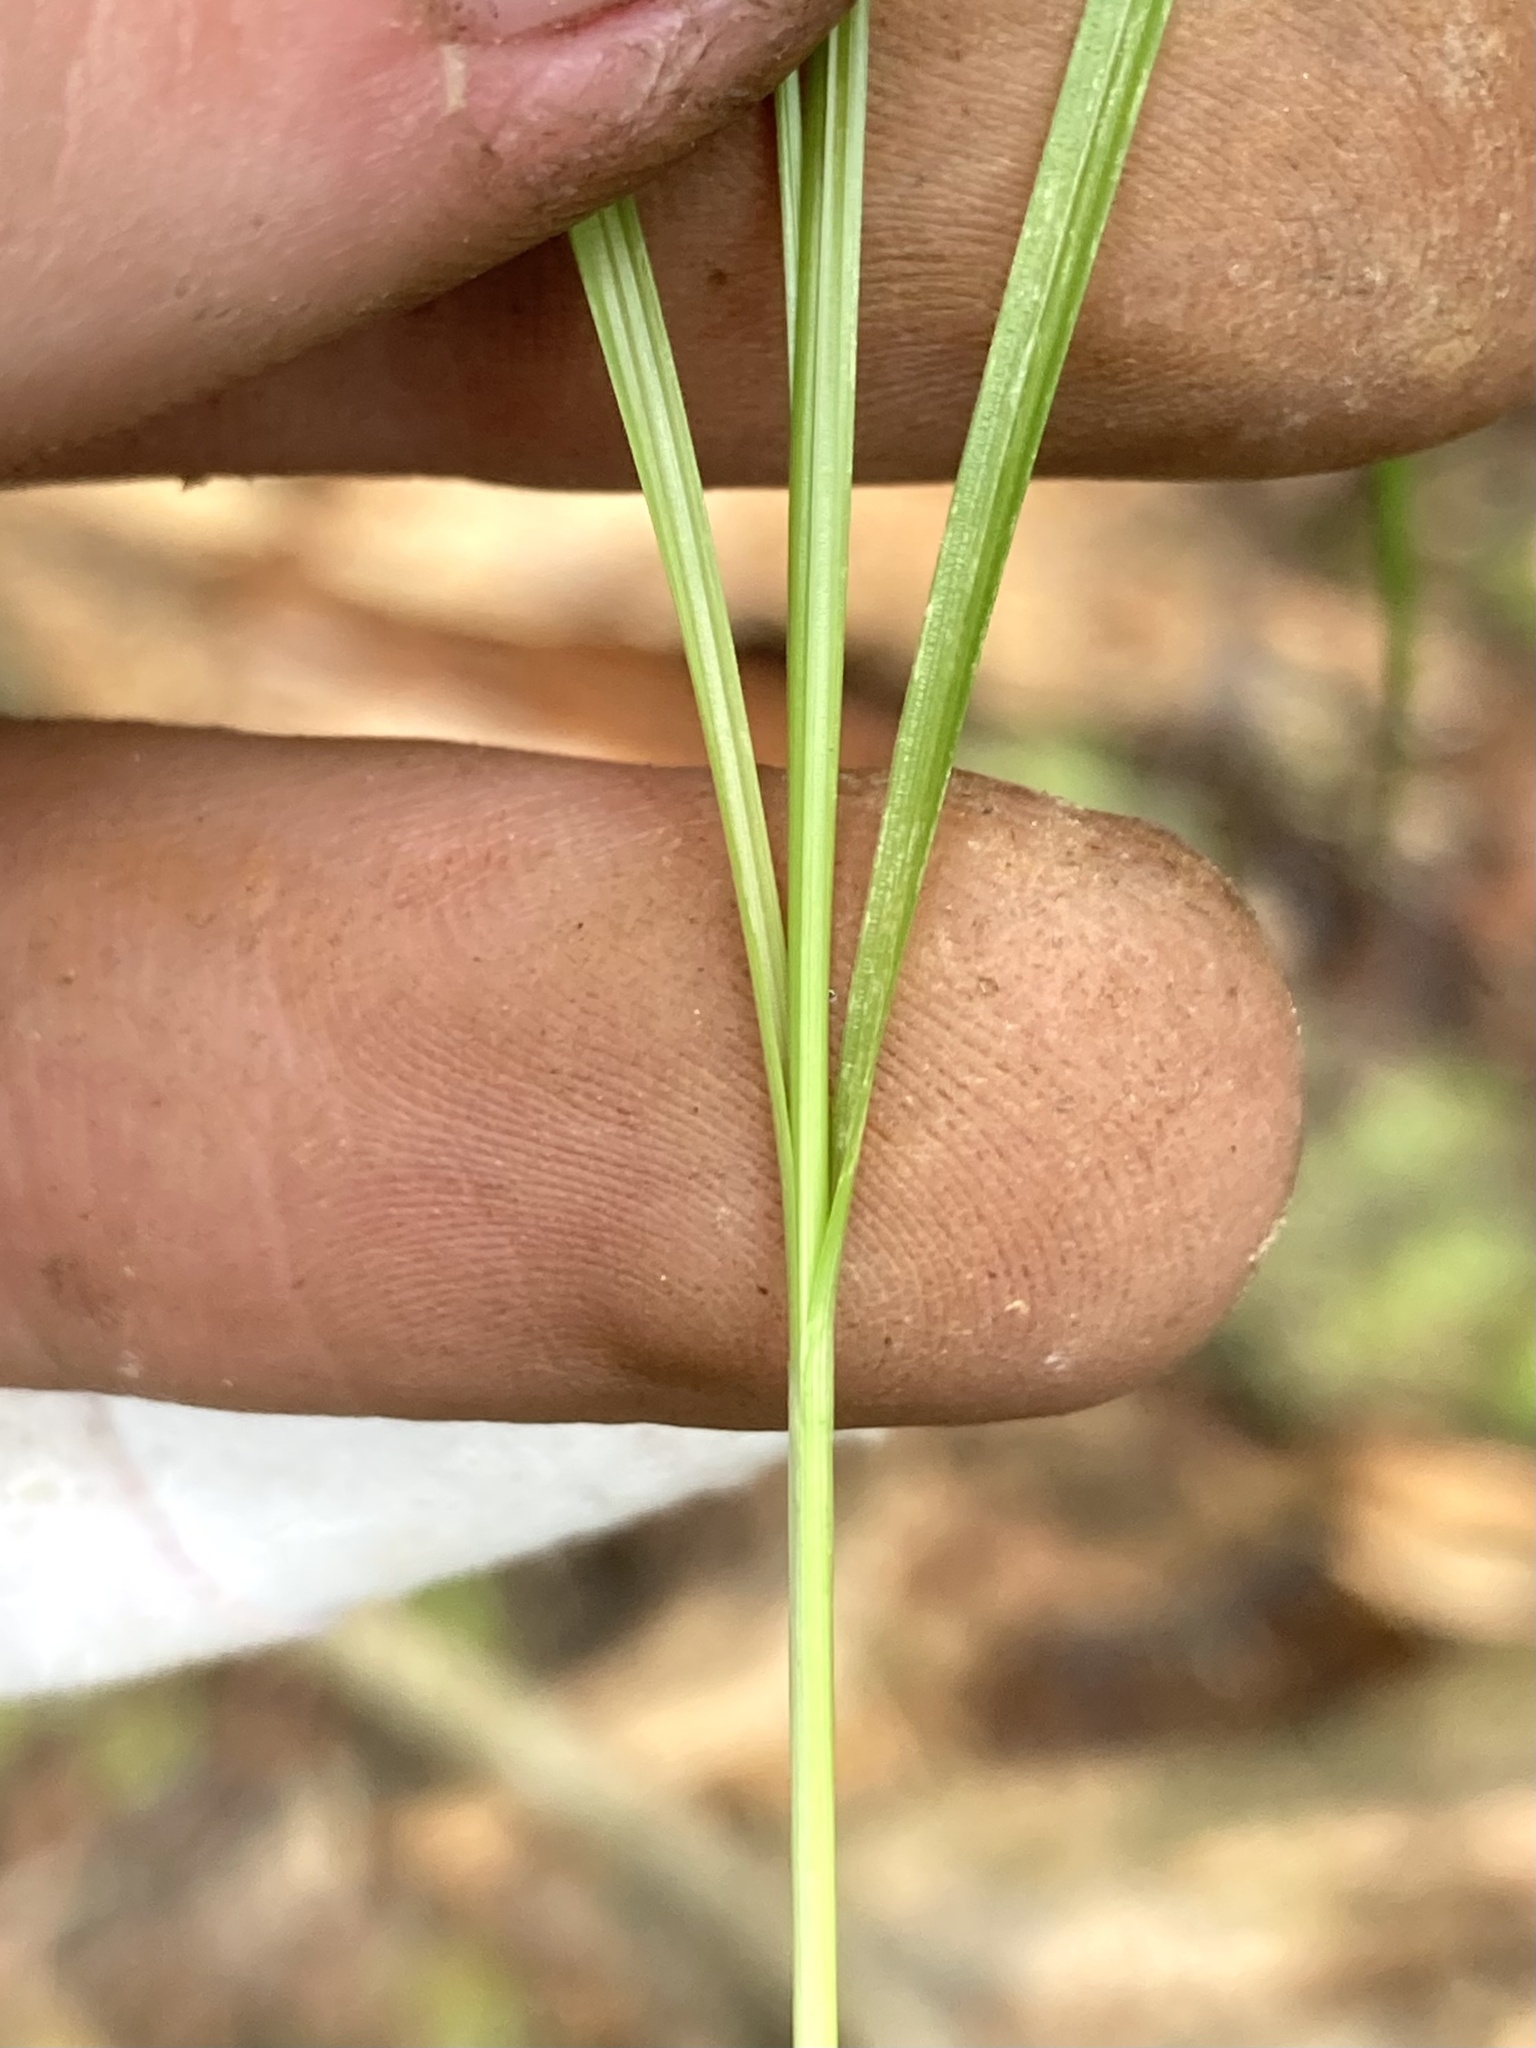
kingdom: Plantae
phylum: Tracheophyta
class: Liliopsida
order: Poales
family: Cyperaceae
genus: Carex
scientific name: Carex disperma
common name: Short-leaved sedge
